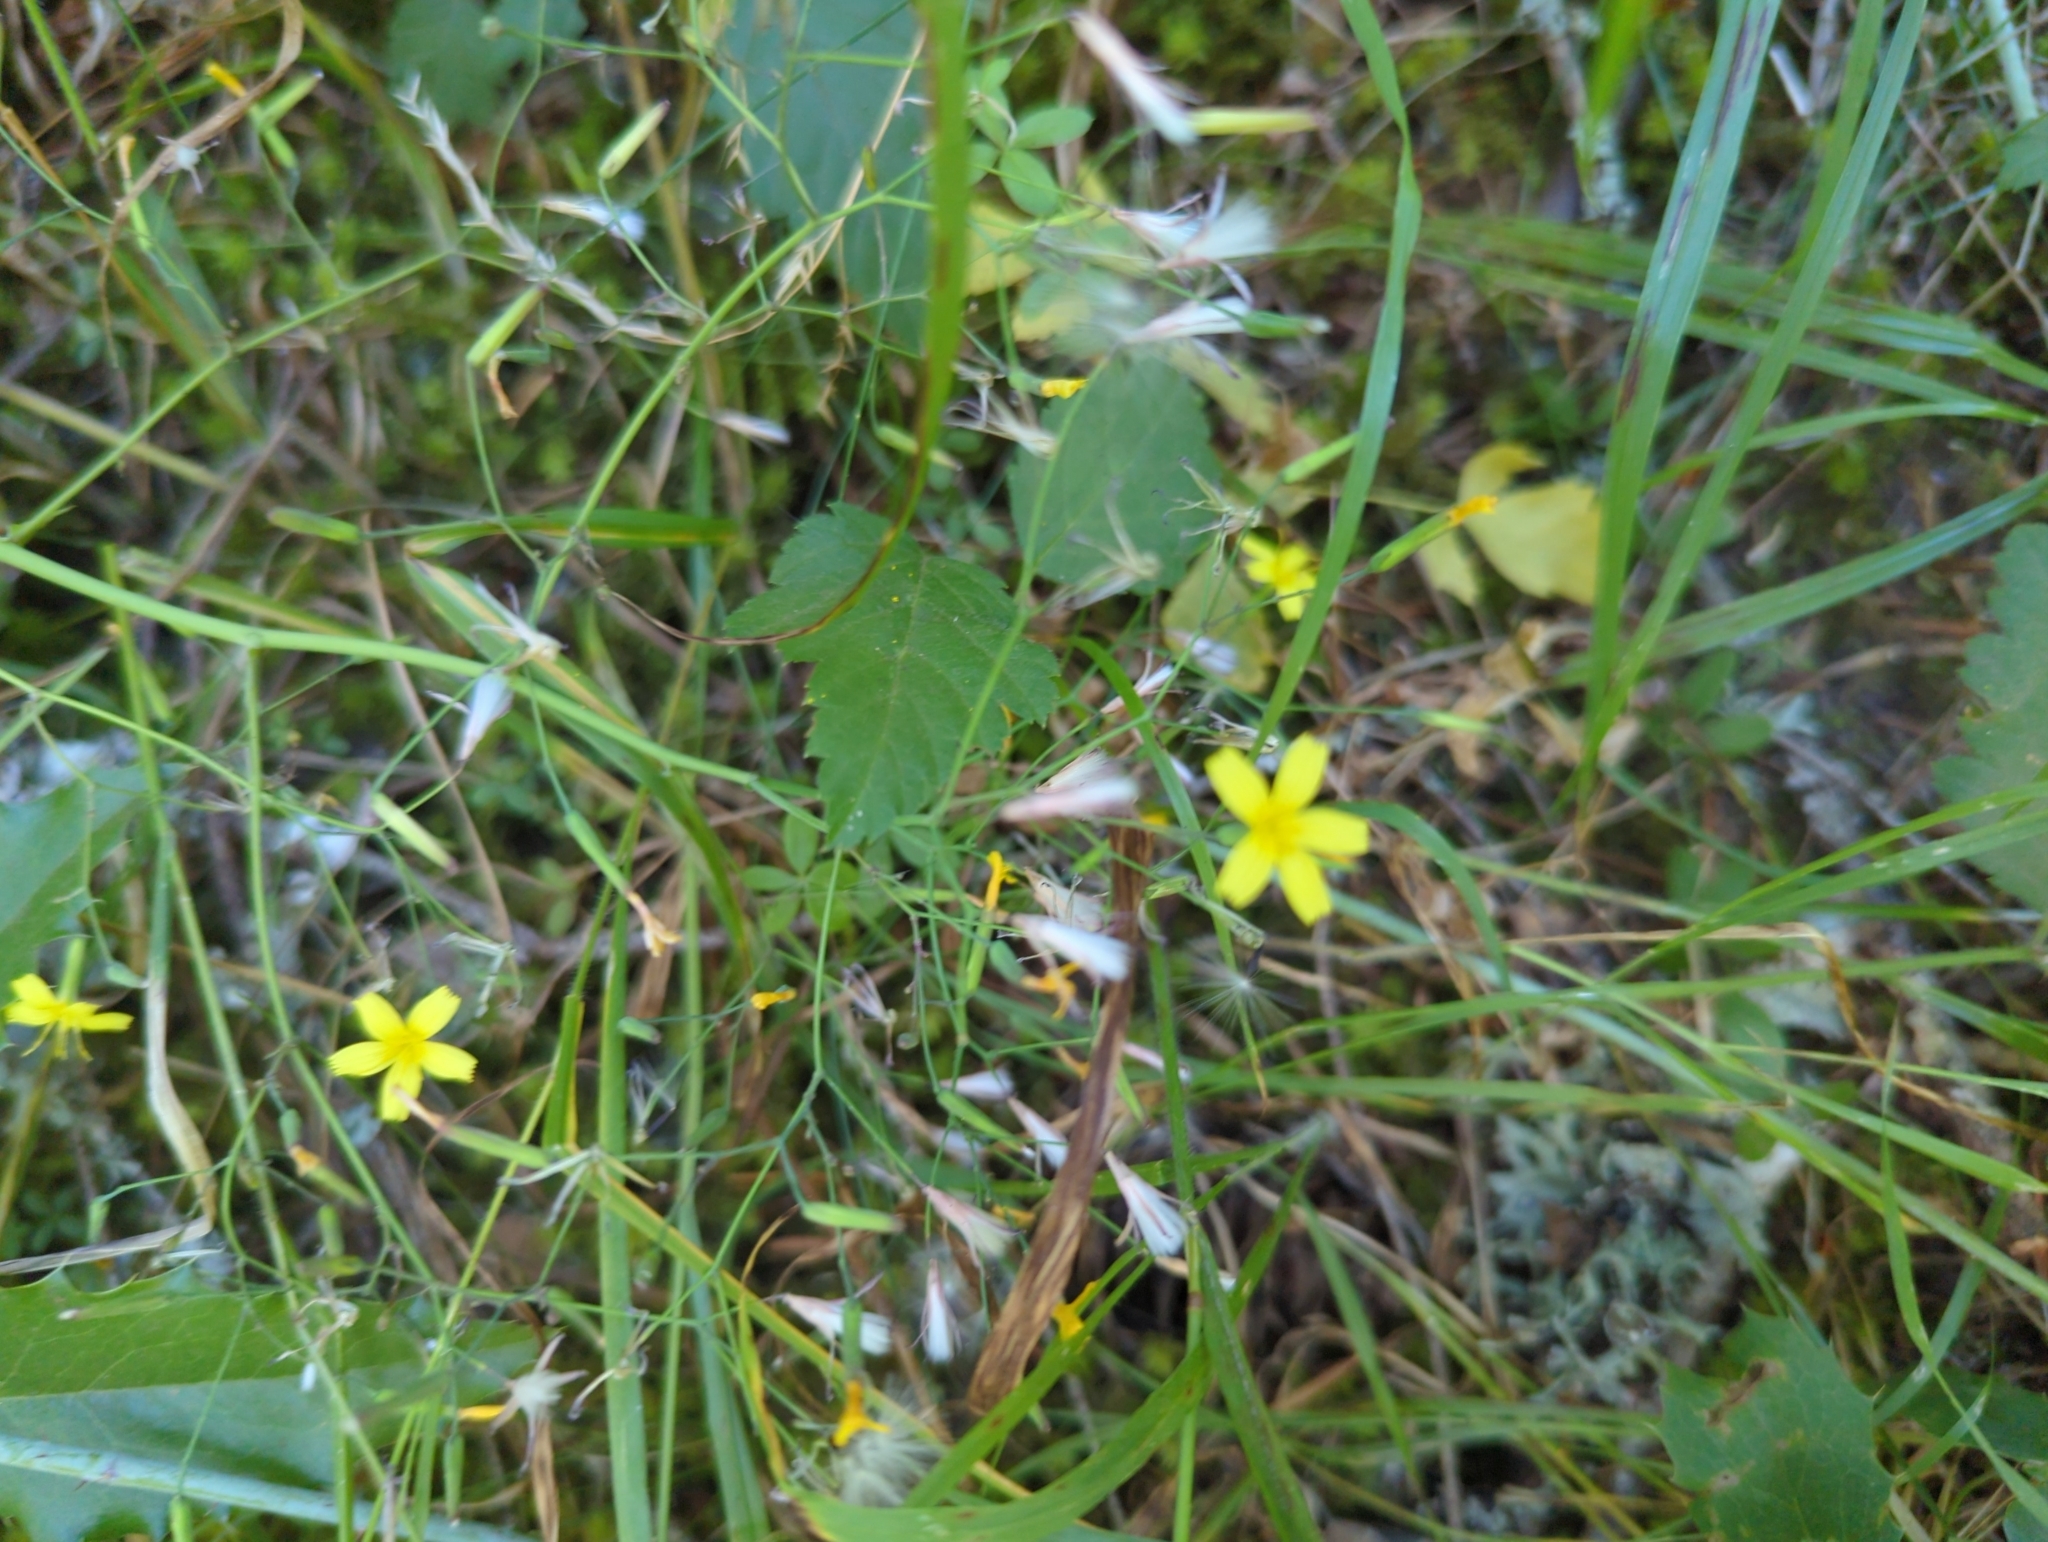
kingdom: Plantae
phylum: Tracheophyta
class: Magnoliopsida
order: Asterales
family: Asteraceae
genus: Mycelis
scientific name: Mycelis muralis
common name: Wall lettuce
